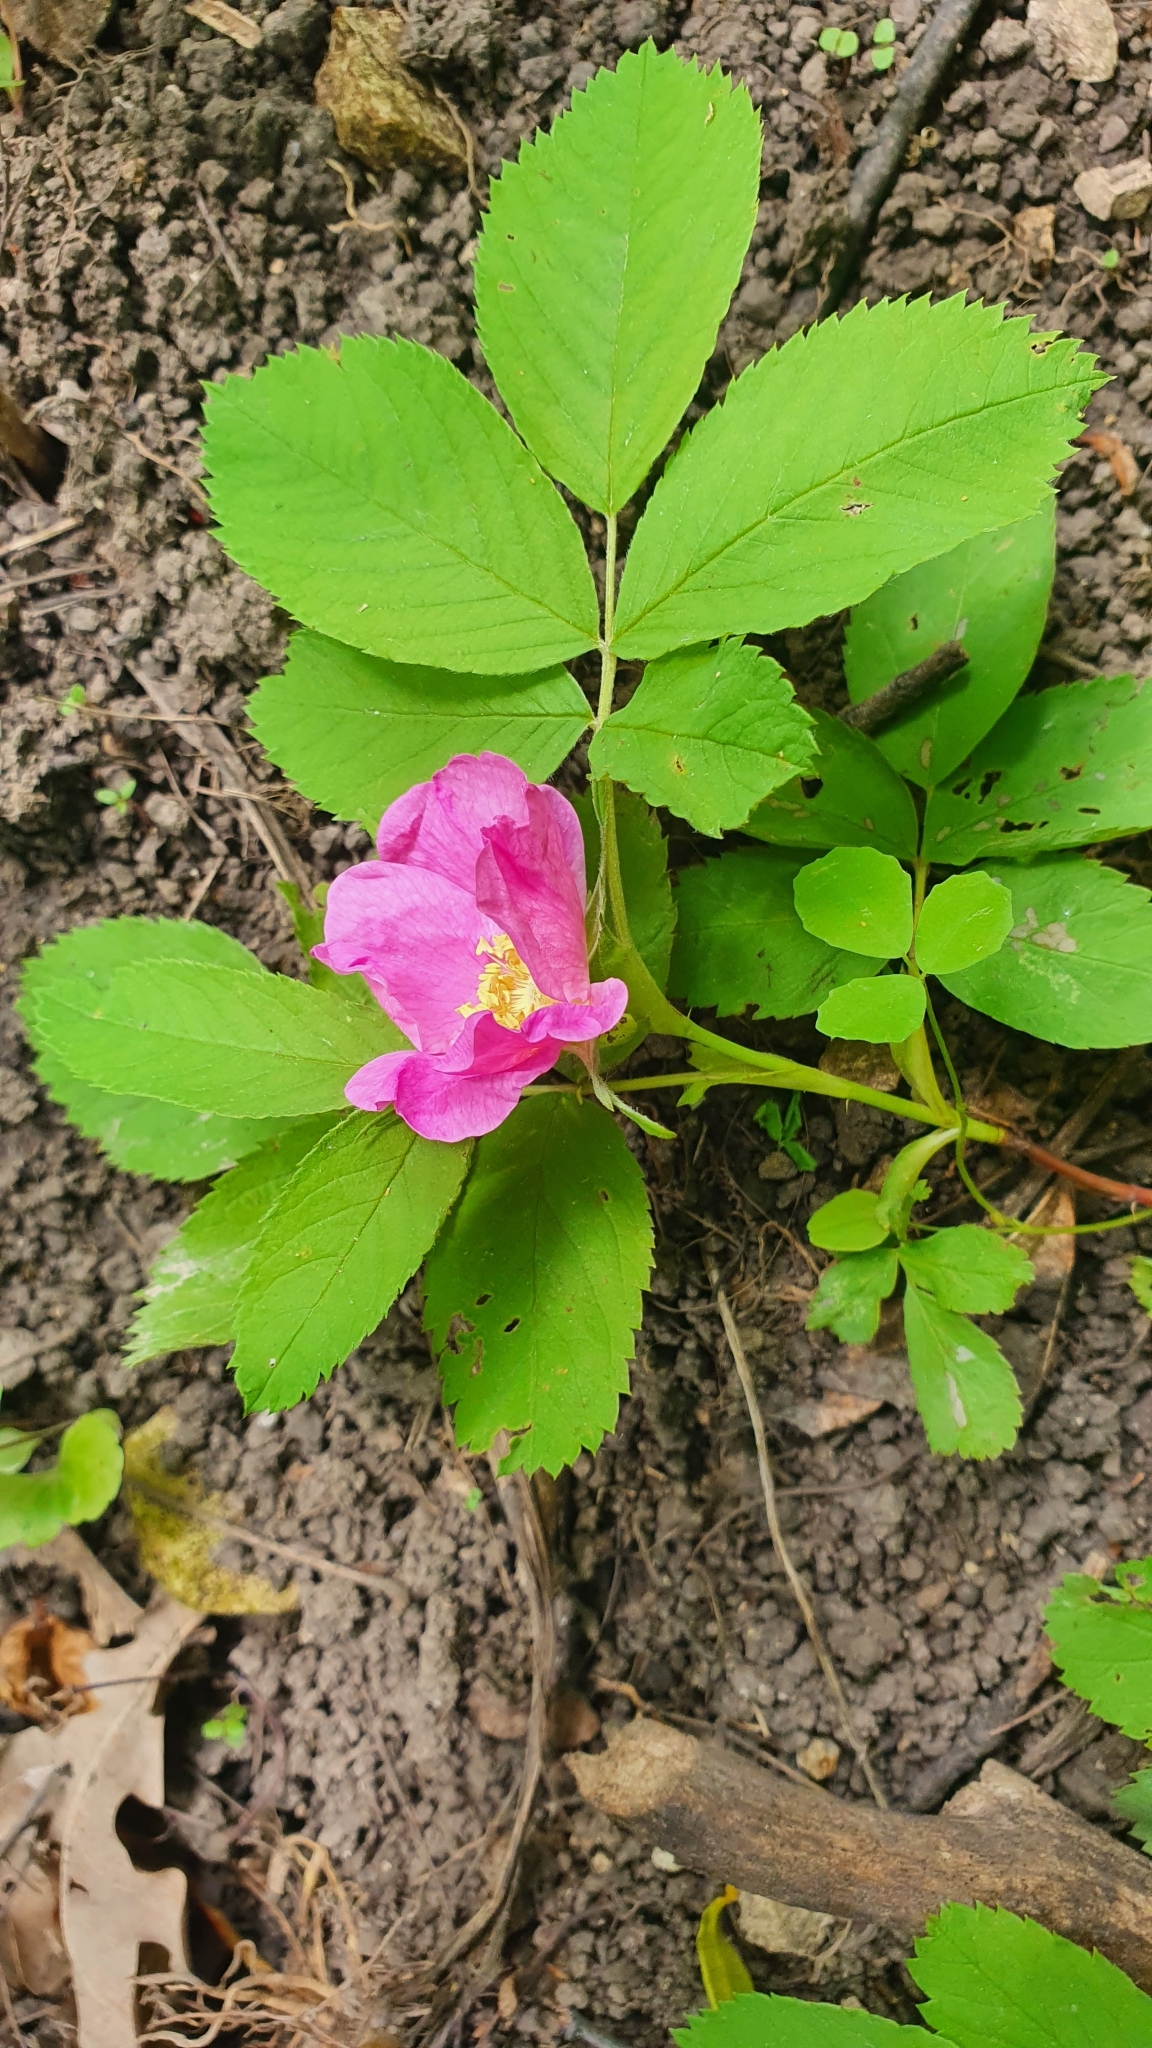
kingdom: Plantae
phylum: Tracheophyta
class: Magnoliopsida
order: Rosales
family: Rosaceae
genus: Rosa
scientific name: Rosa glabrifolia
